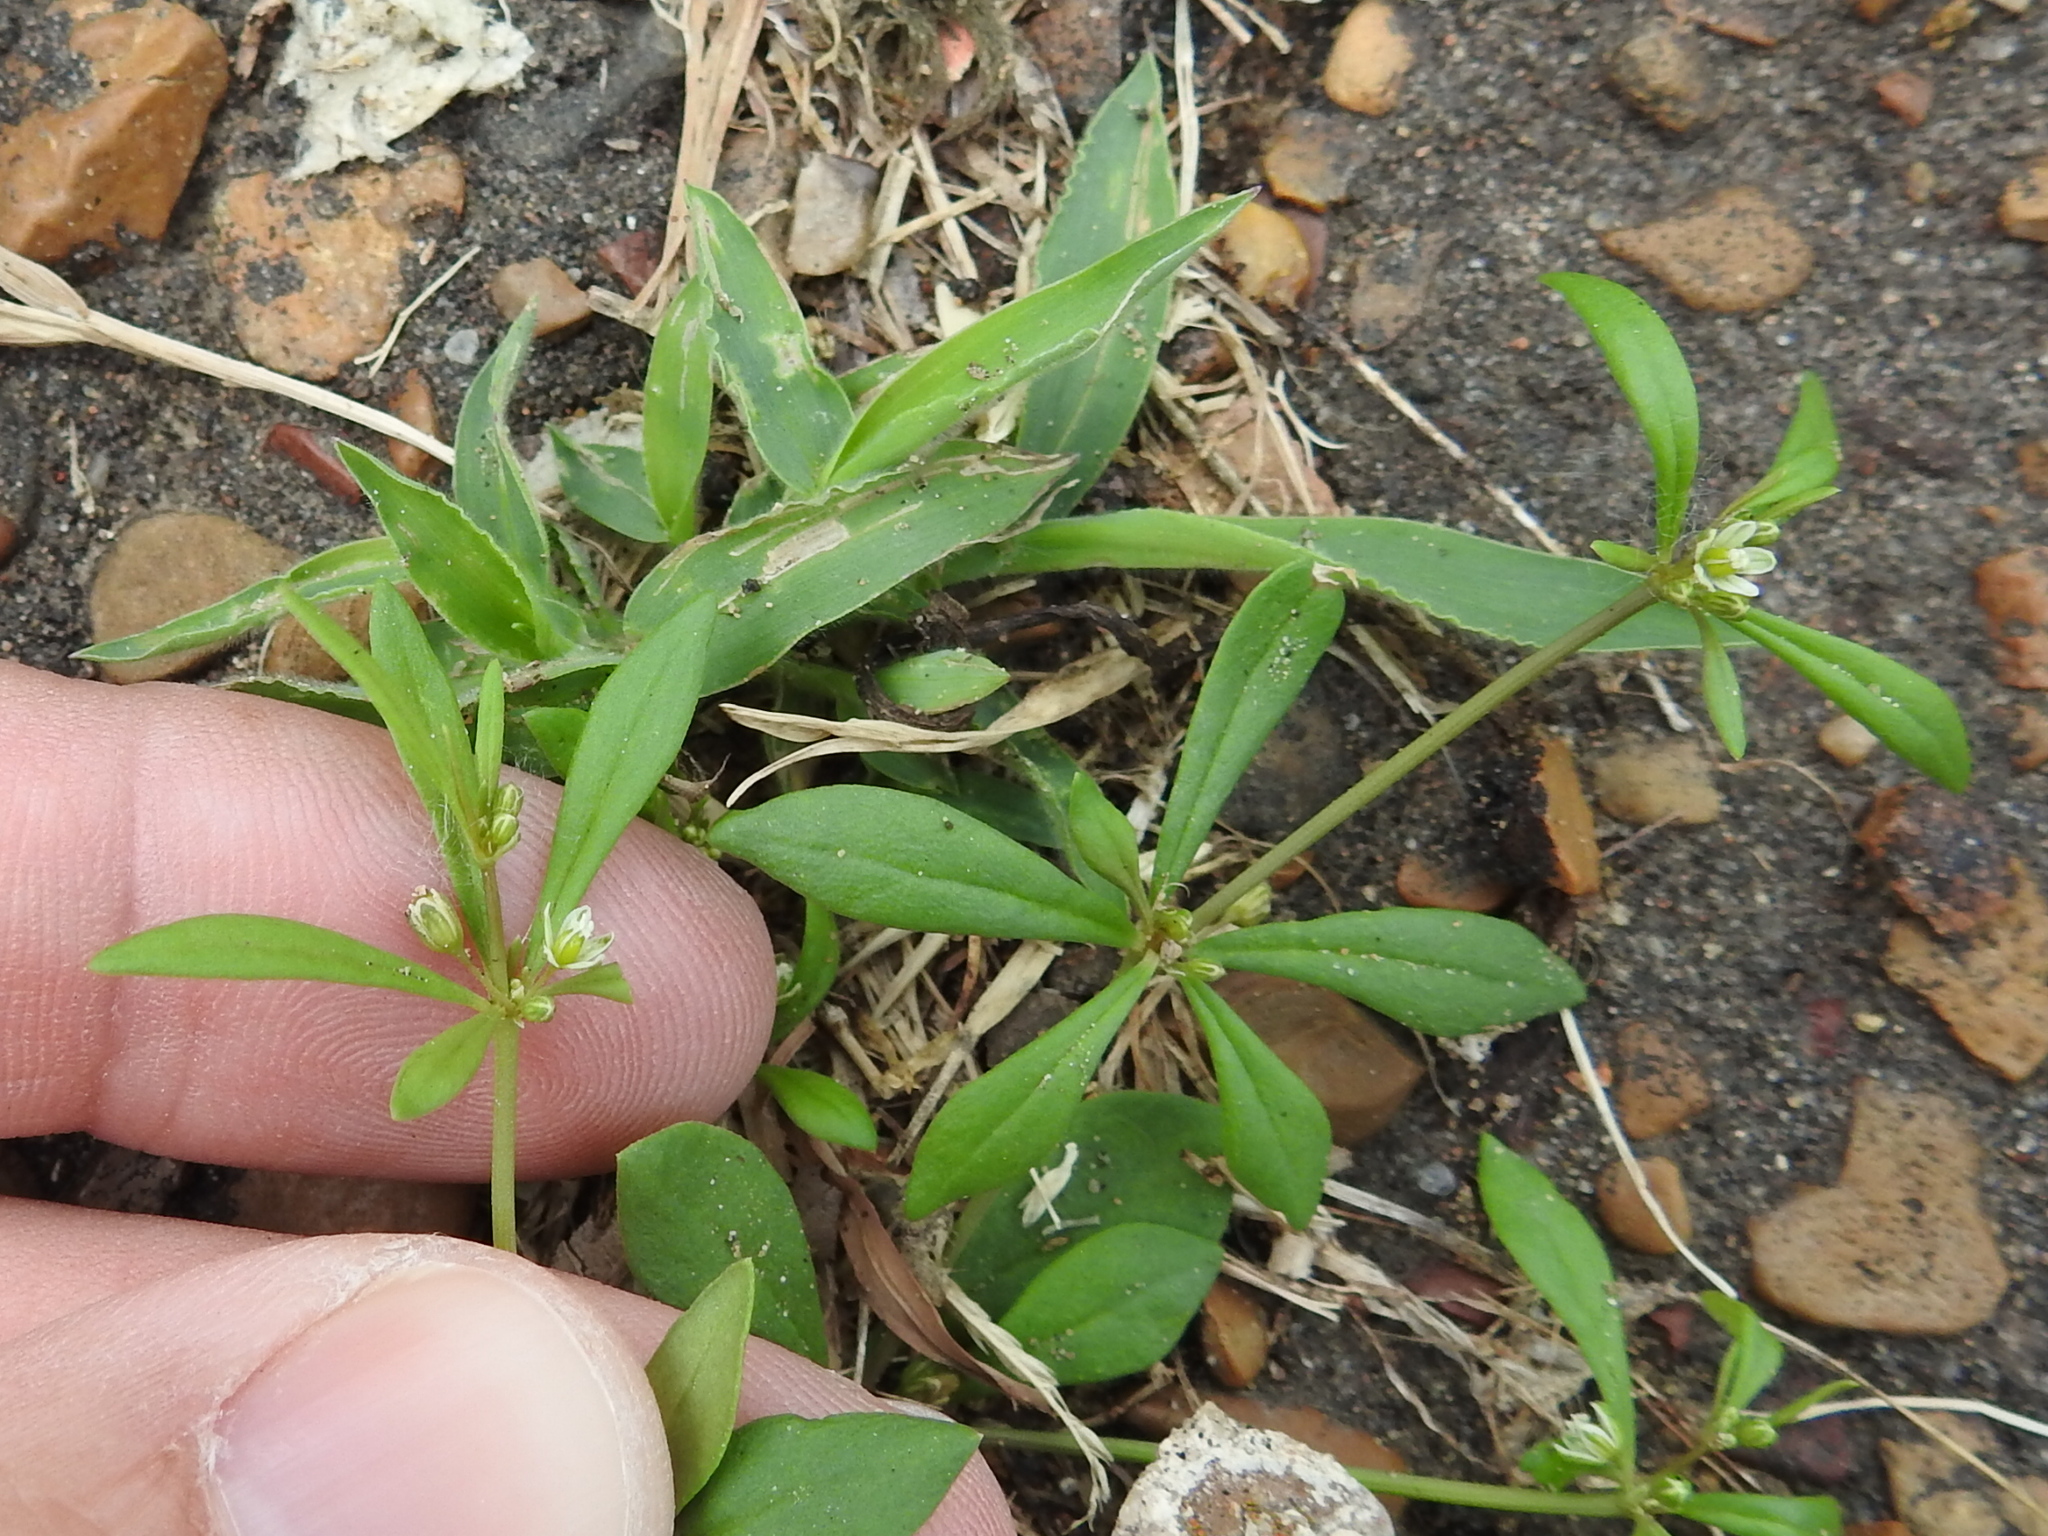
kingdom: Plantae
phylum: Tracheophyta
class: Magnoliopsida
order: Caryophyllales
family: Molluginaceae
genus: Mollugo
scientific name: Mollugo verticillata
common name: Green carpetweed
